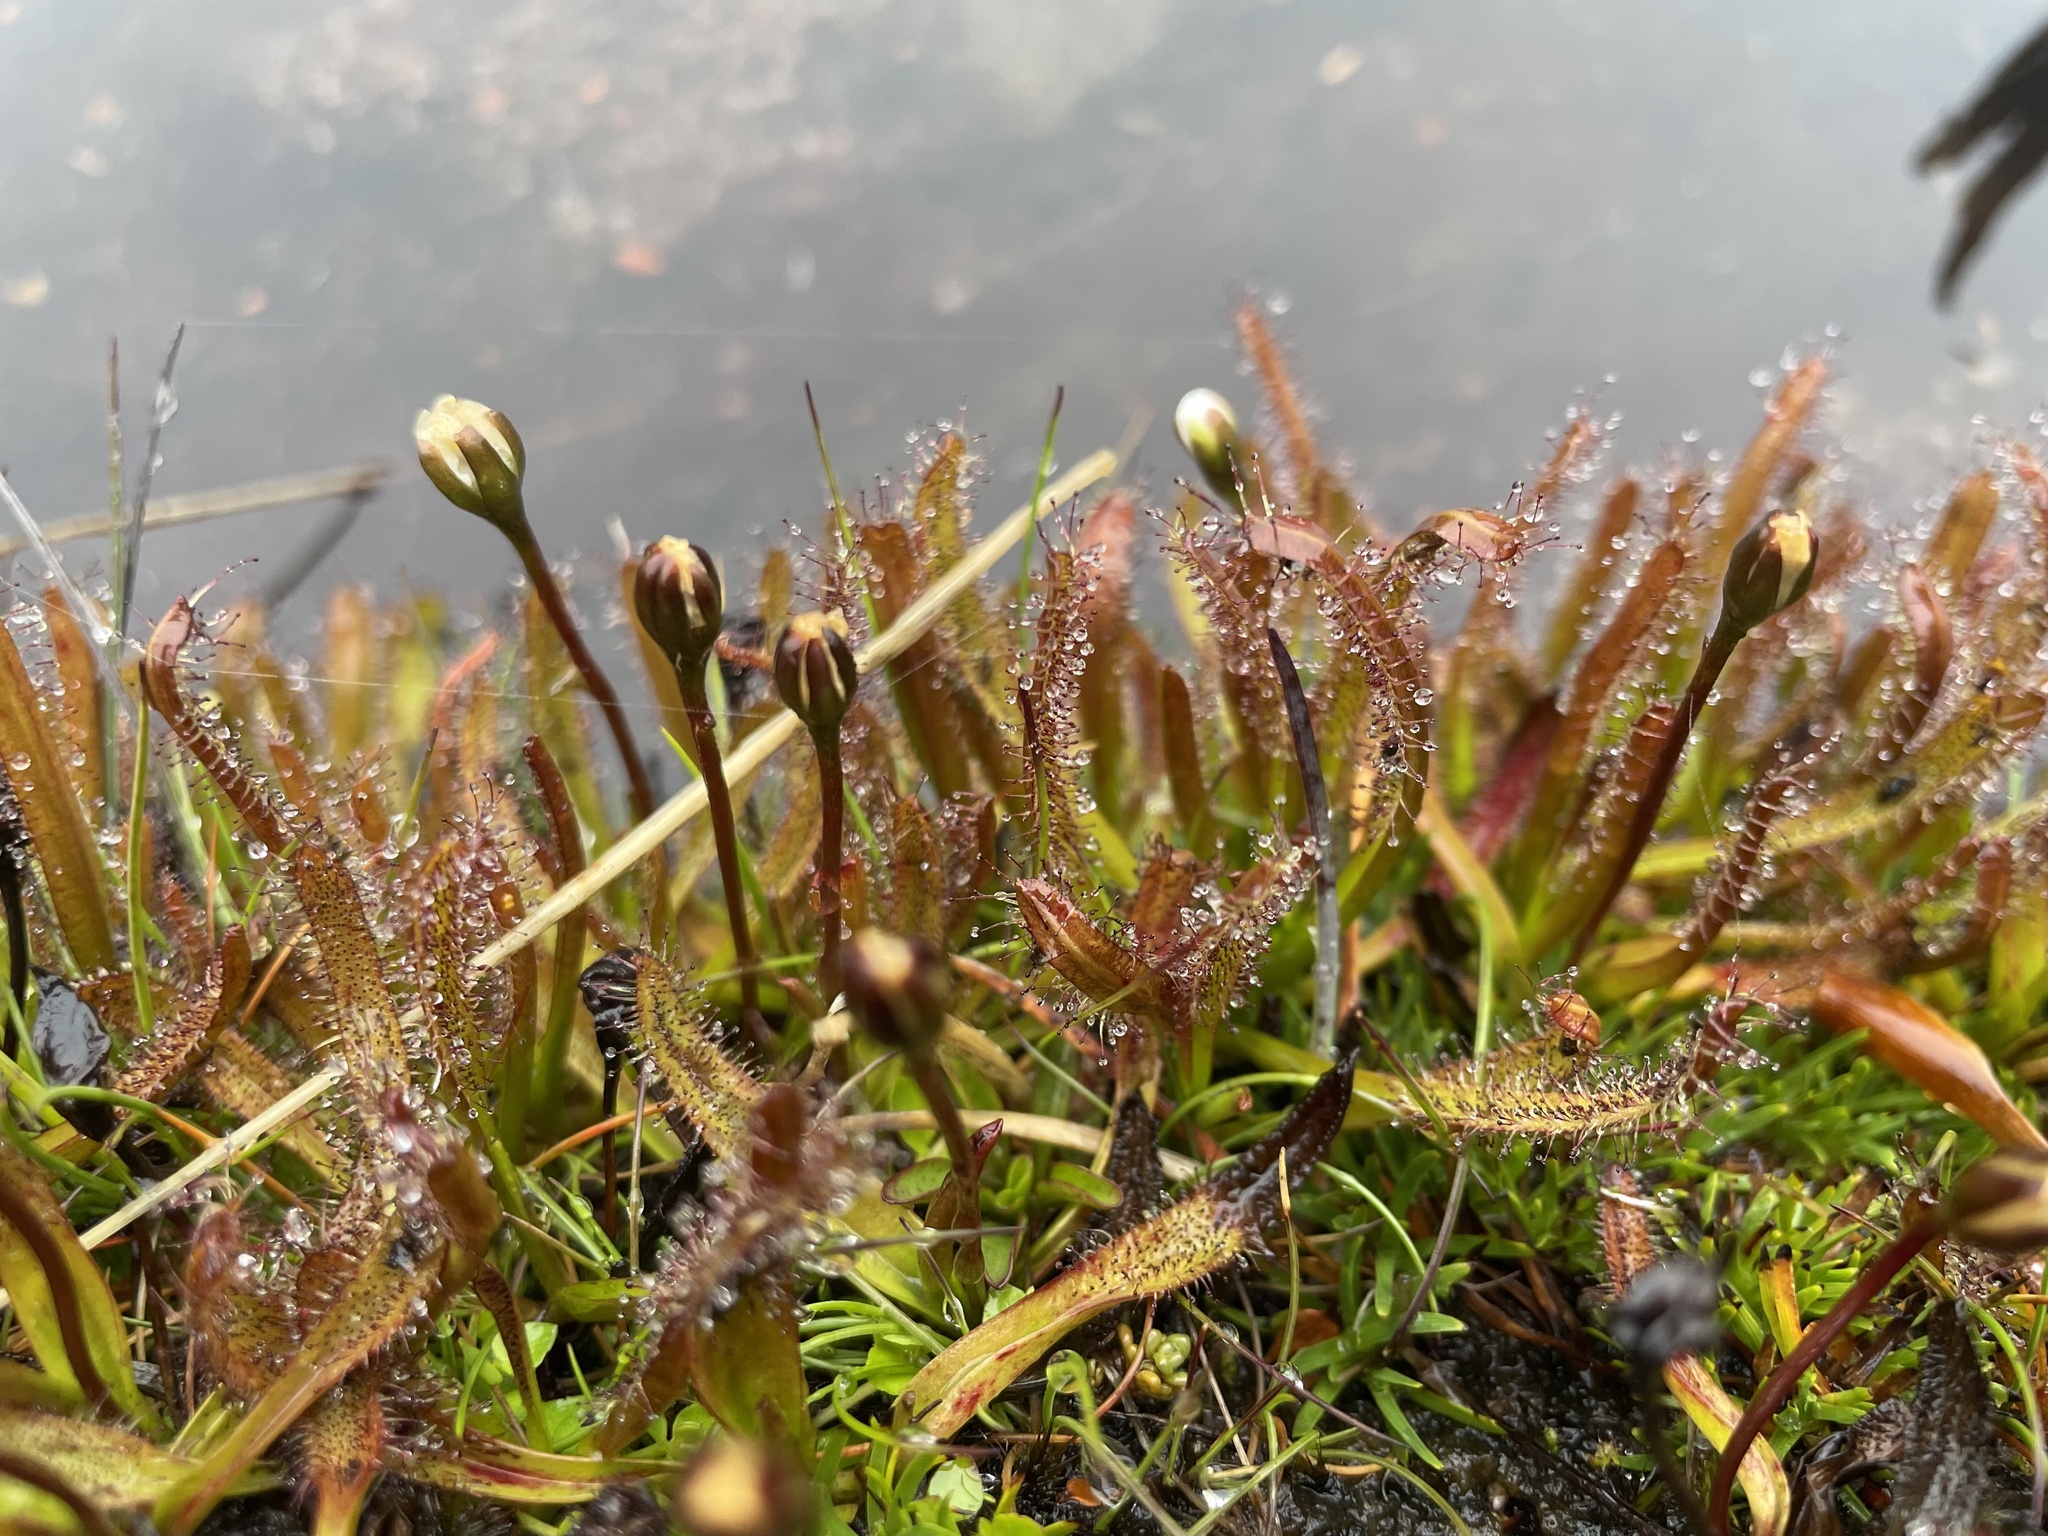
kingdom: Plantae
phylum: Tracheophyta
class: Magnoliopsida
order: Caryophyllales
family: Droseraceae
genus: Drosera
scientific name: Drosera arcturi
